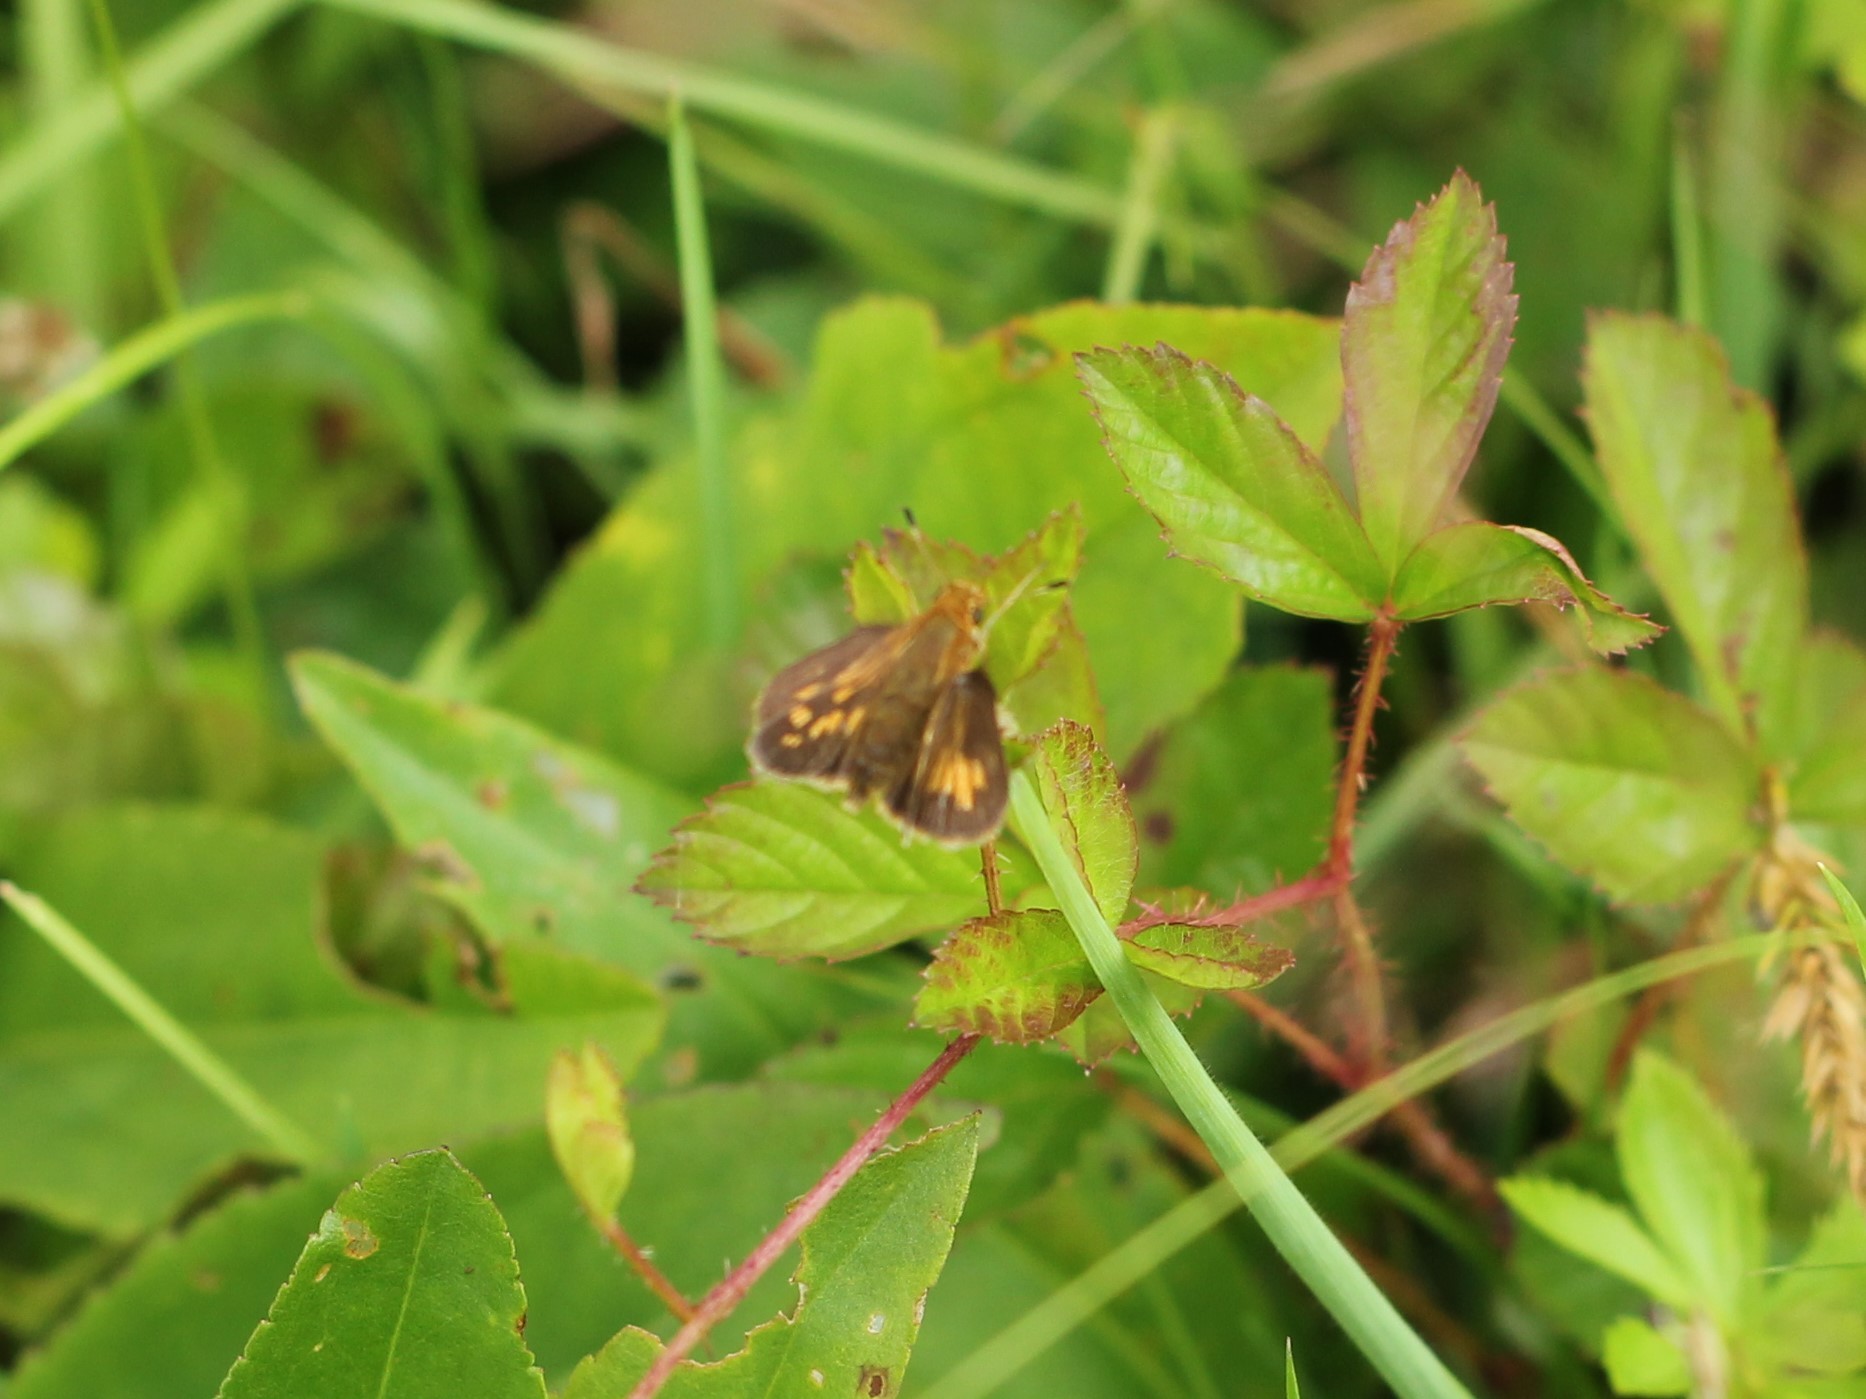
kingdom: Animalia
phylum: Arthropoda
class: Insecta
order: Lepidoptera
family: Hesperiidae
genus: Polites
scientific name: Polites coras
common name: Peck's skipper
